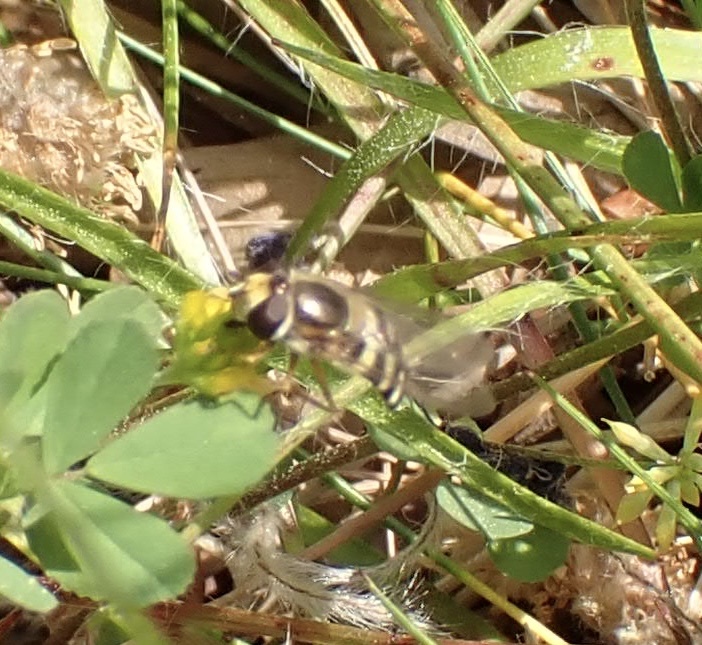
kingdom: Animalia
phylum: Arthropoda
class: Insecta
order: Diptera
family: Syrphidae
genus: Eupeodes
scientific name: Eupeodes corollae
